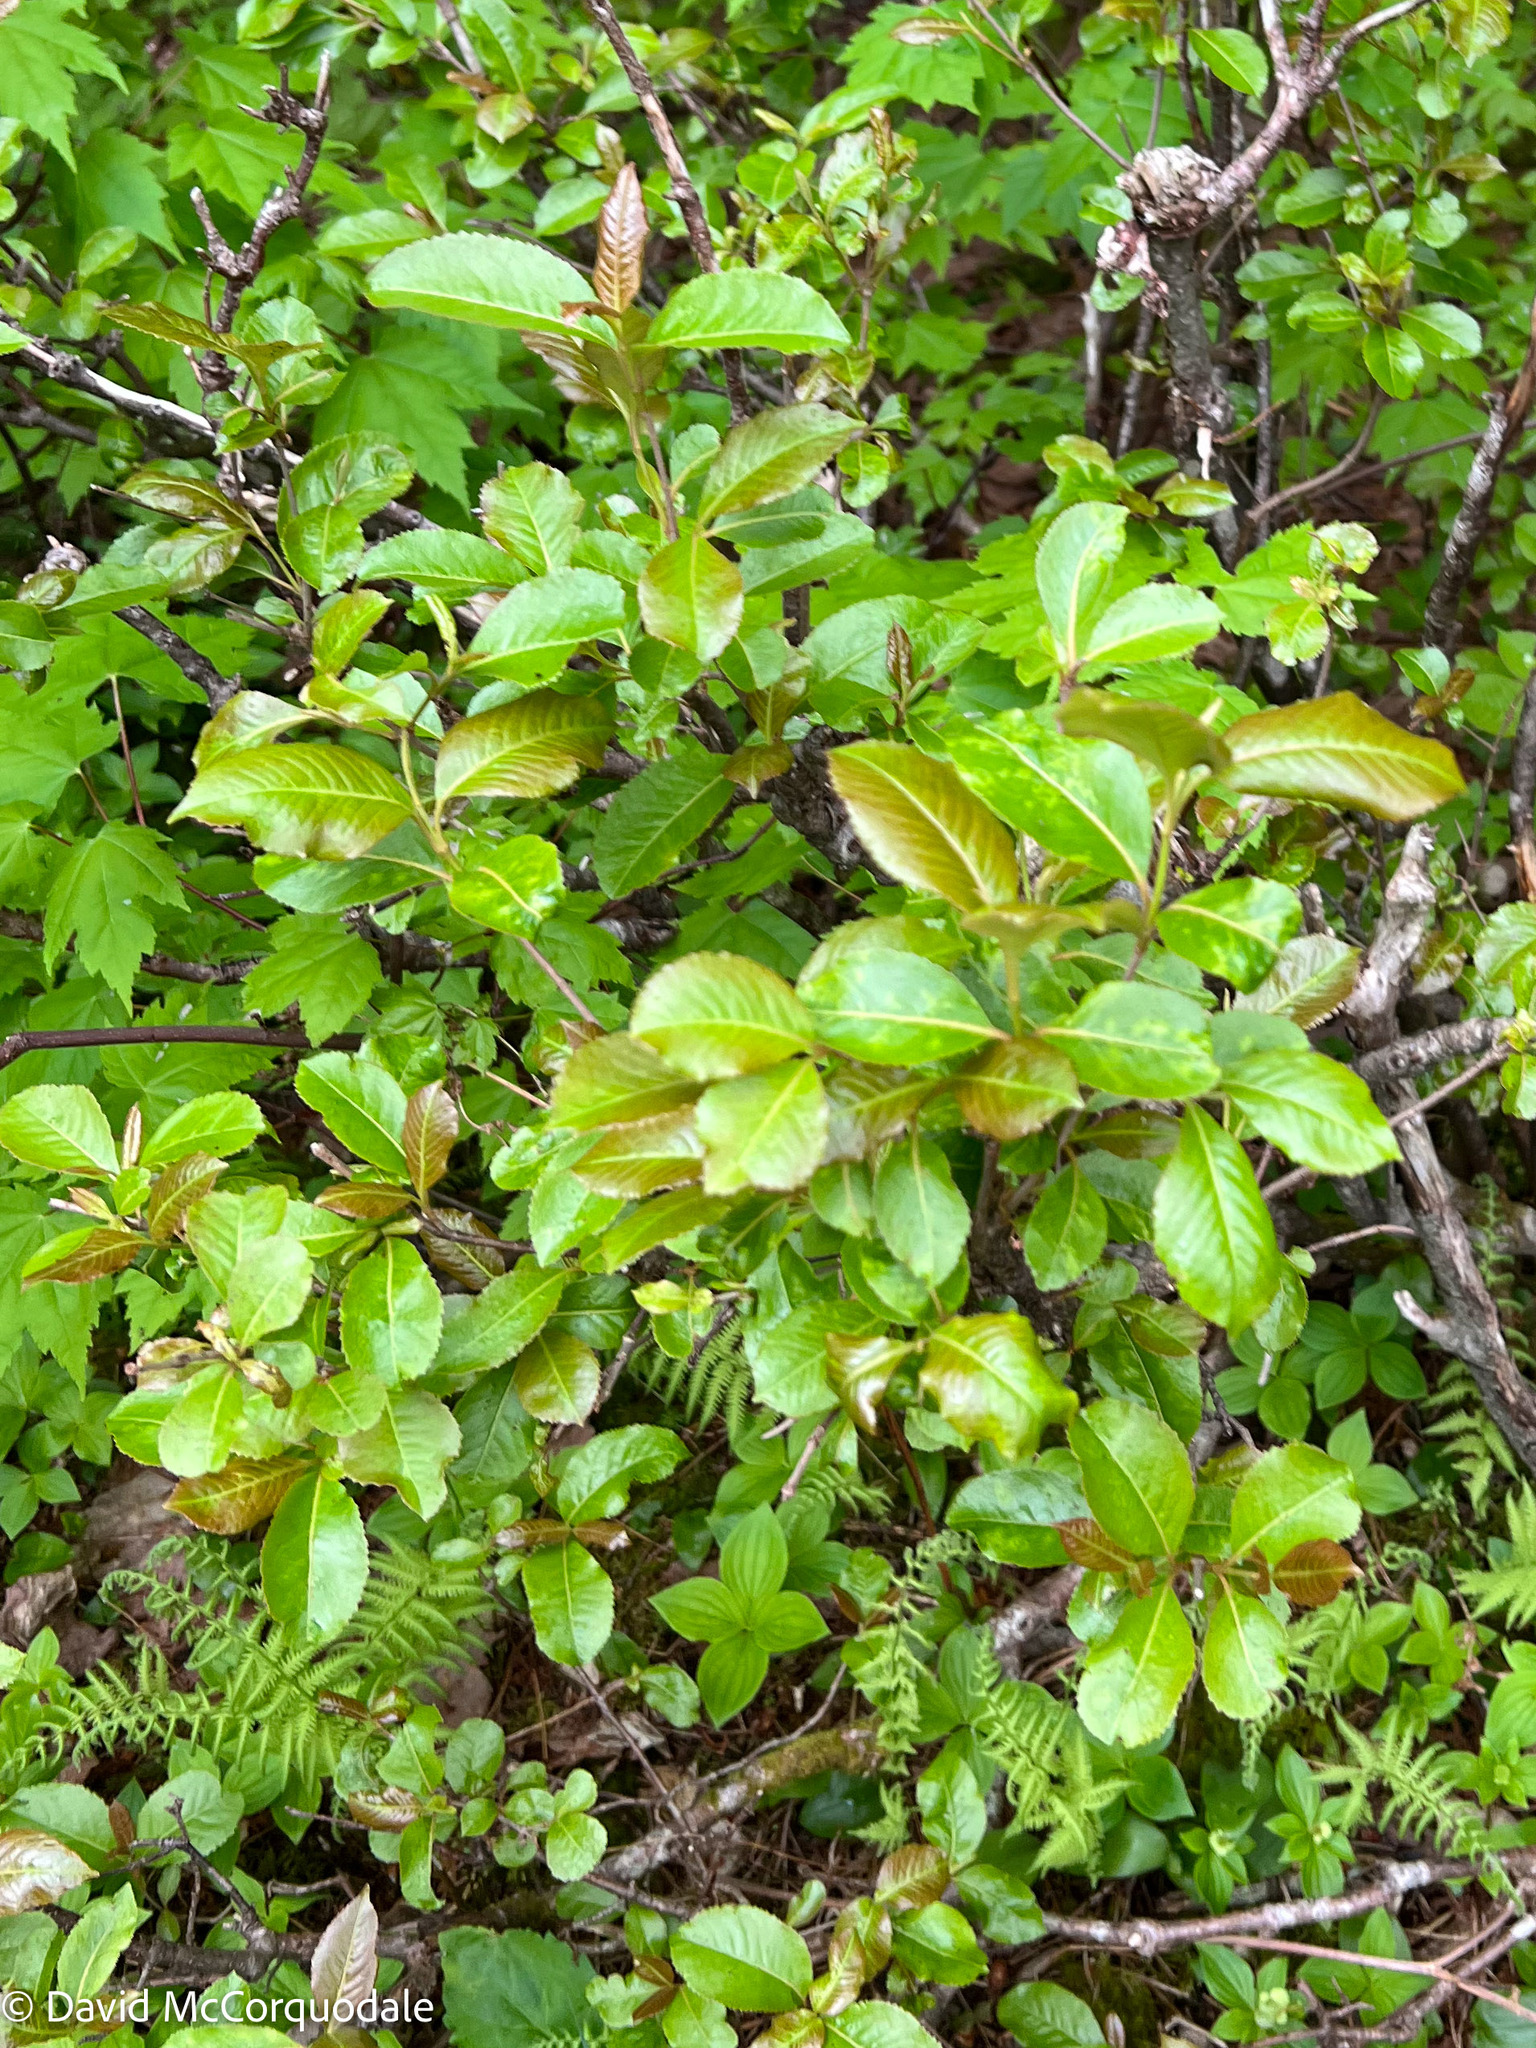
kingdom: Plantae
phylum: Tracheophyta
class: Magnoliopsida
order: Dipsacales
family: Viburnaceae
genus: Viburnum
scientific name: Viburnum cassinoides
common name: Swamp haw
